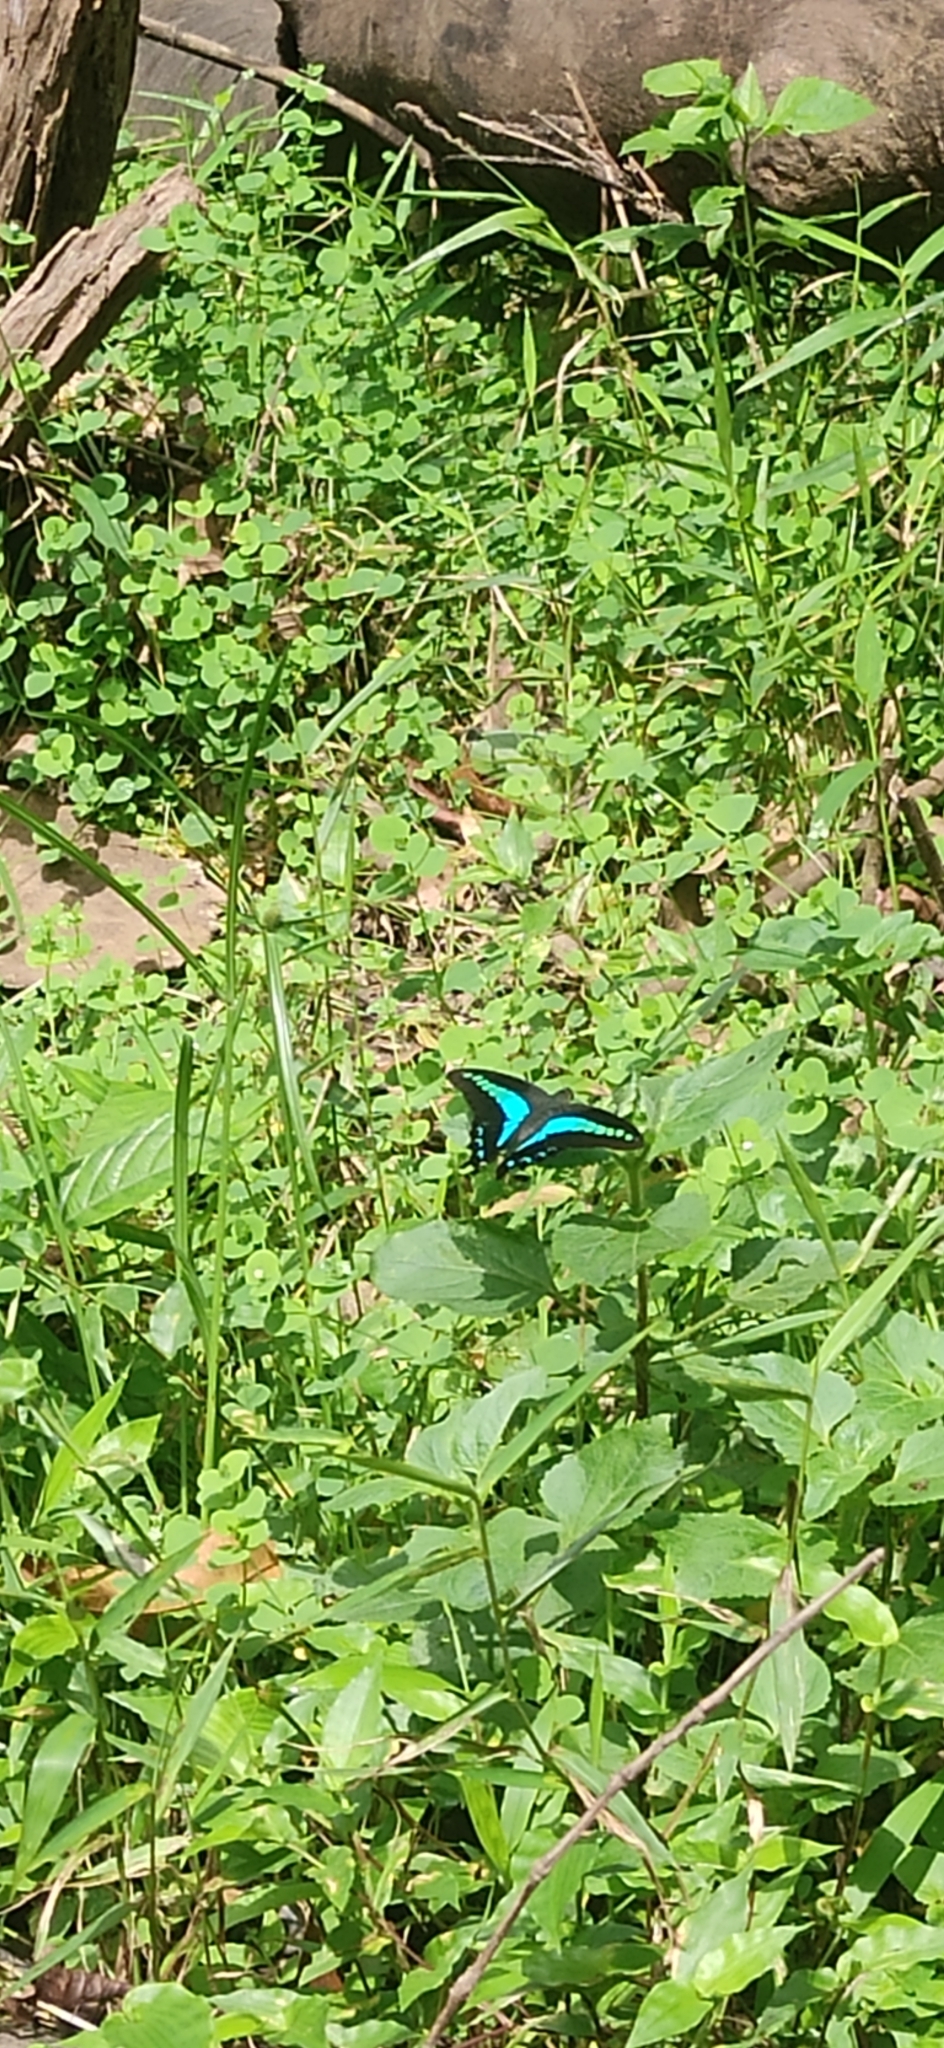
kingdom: Animalia
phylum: Arthropoda
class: Insecta
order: Lepidoptera
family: Papilionidae
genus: Graphium
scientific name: Graphium
